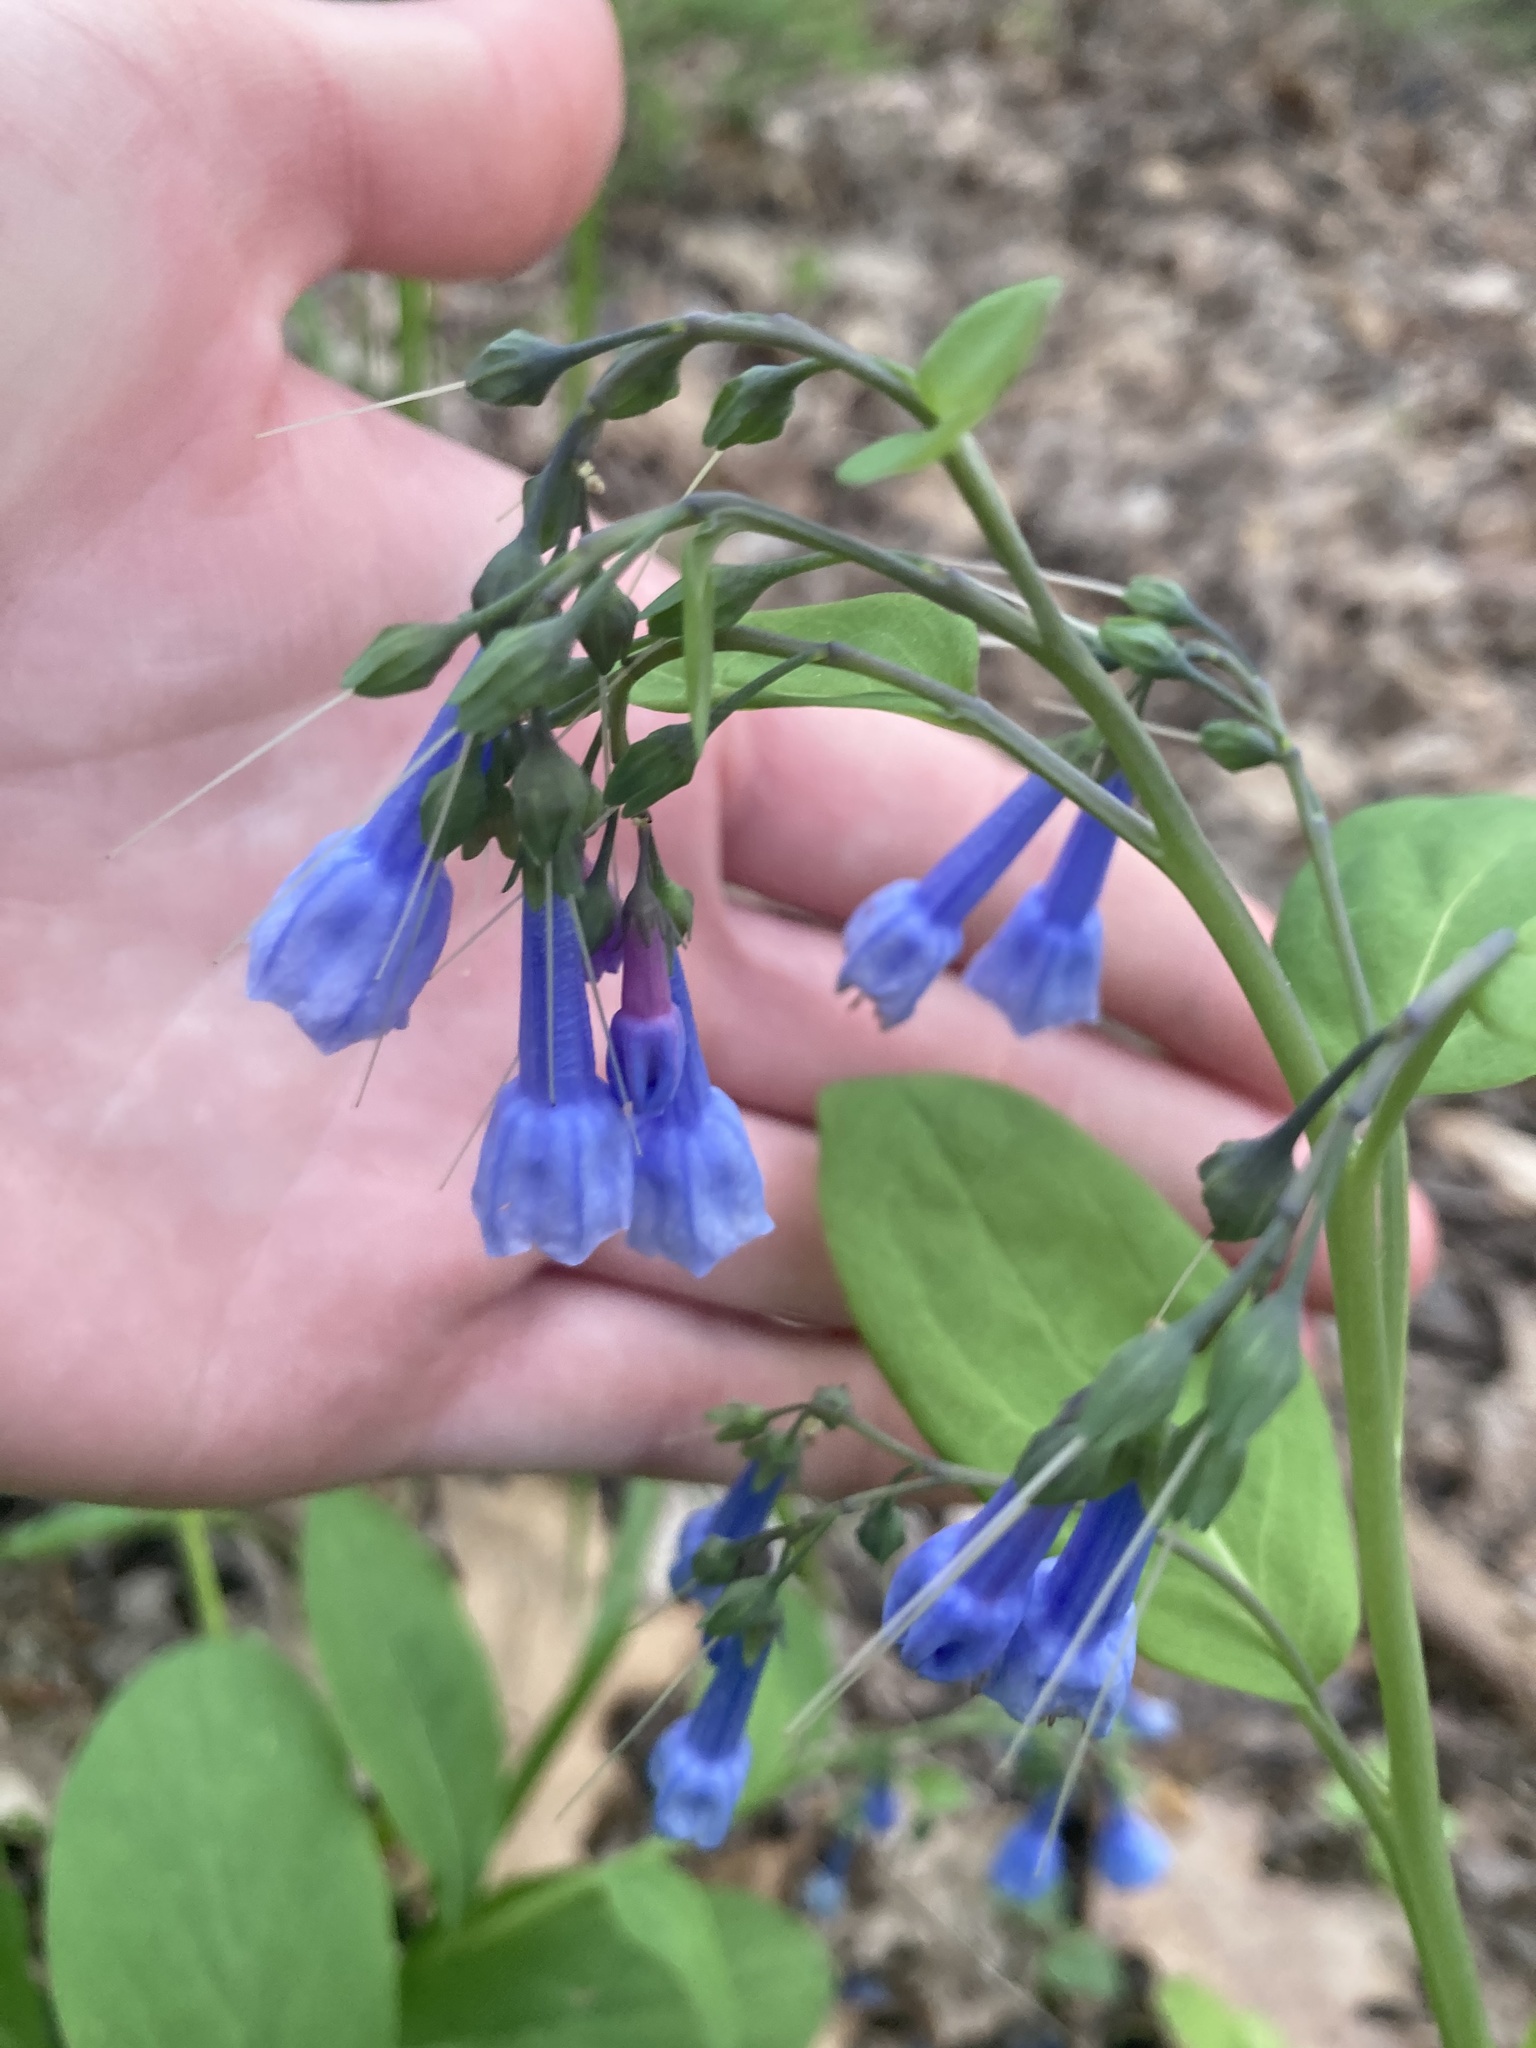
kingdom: Plantae
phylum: Tracheophyta
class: Magnoliopsida
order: Boraginales
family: Boraginaceae
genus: Mertensia
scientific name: Mertensia virginica
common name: Virginia bluebells
